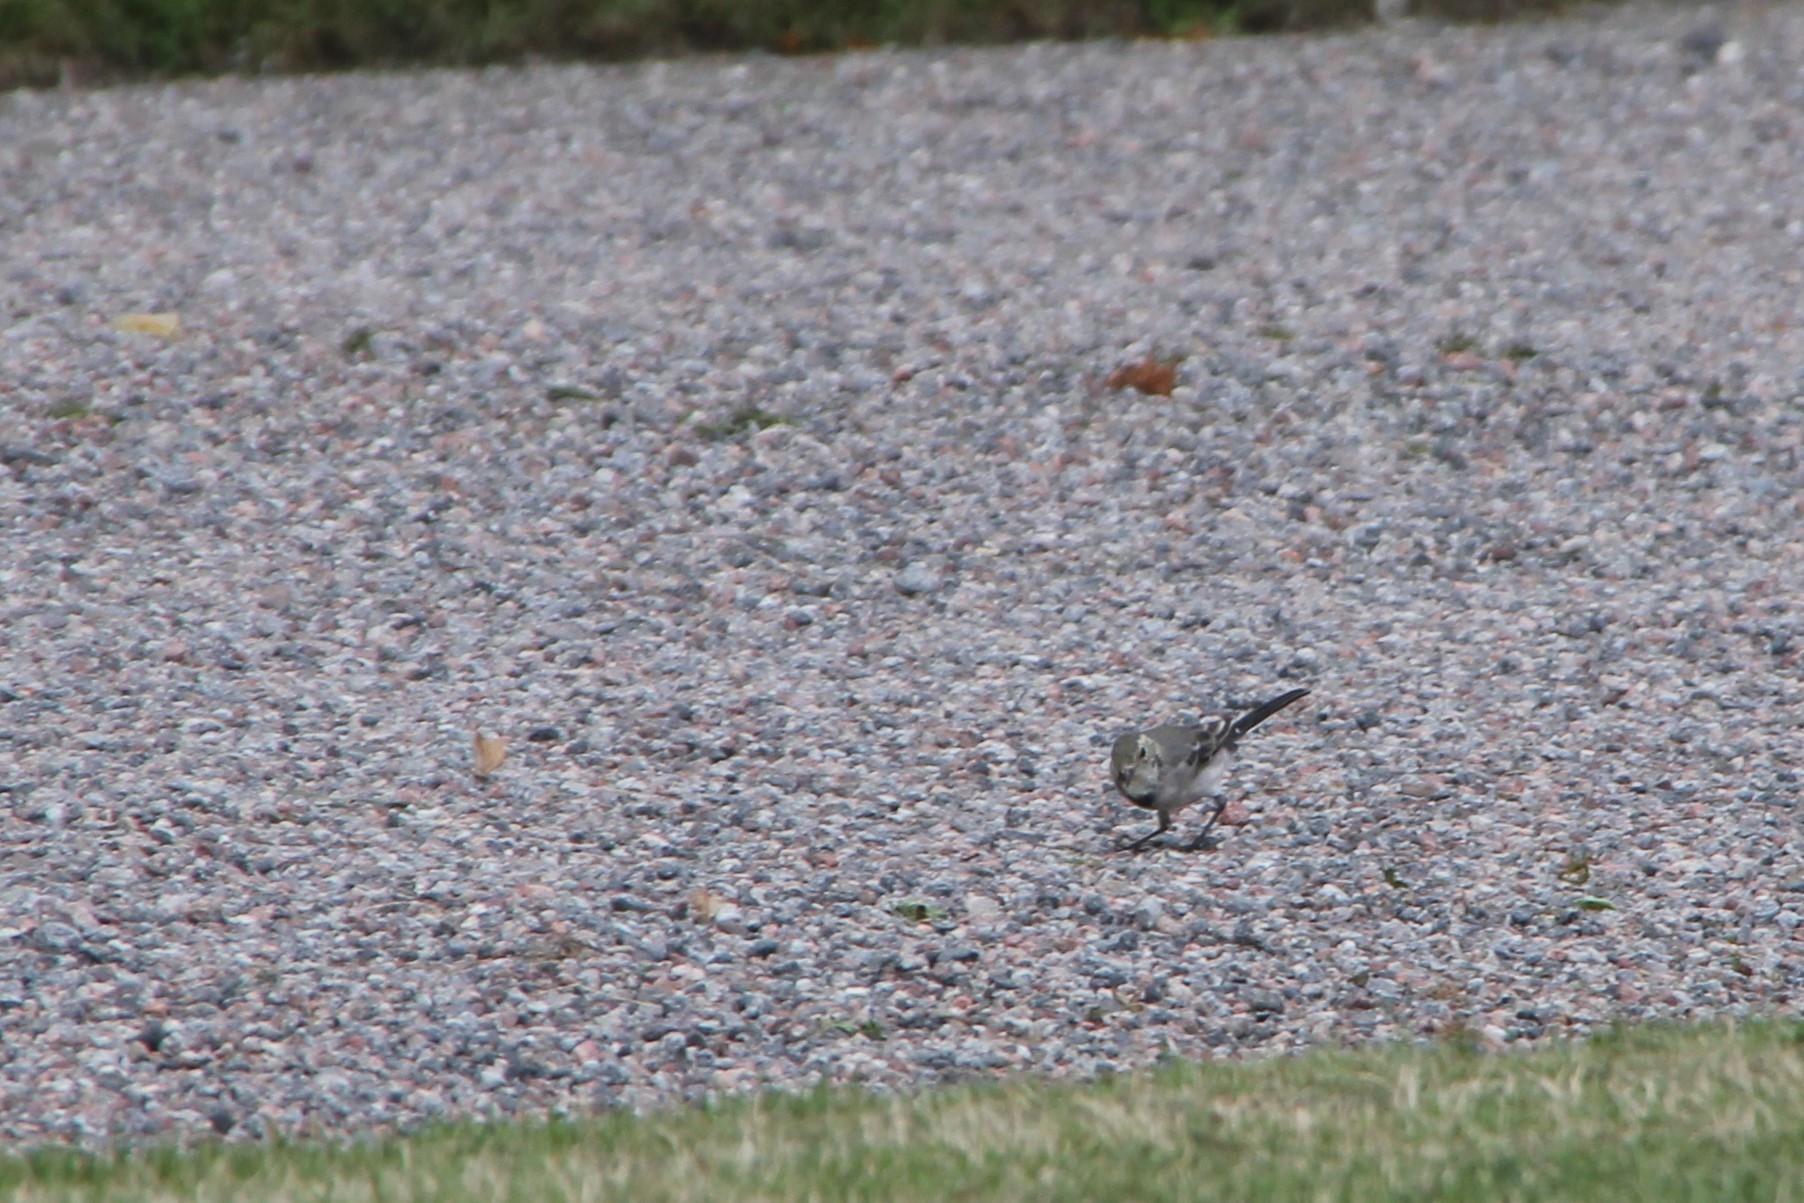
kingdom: Animalia
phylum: Chordata
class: Aves
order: Passeriformes
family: Motacillidae
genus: Motacilla
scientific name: Motacilla alba
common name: White wagtail
